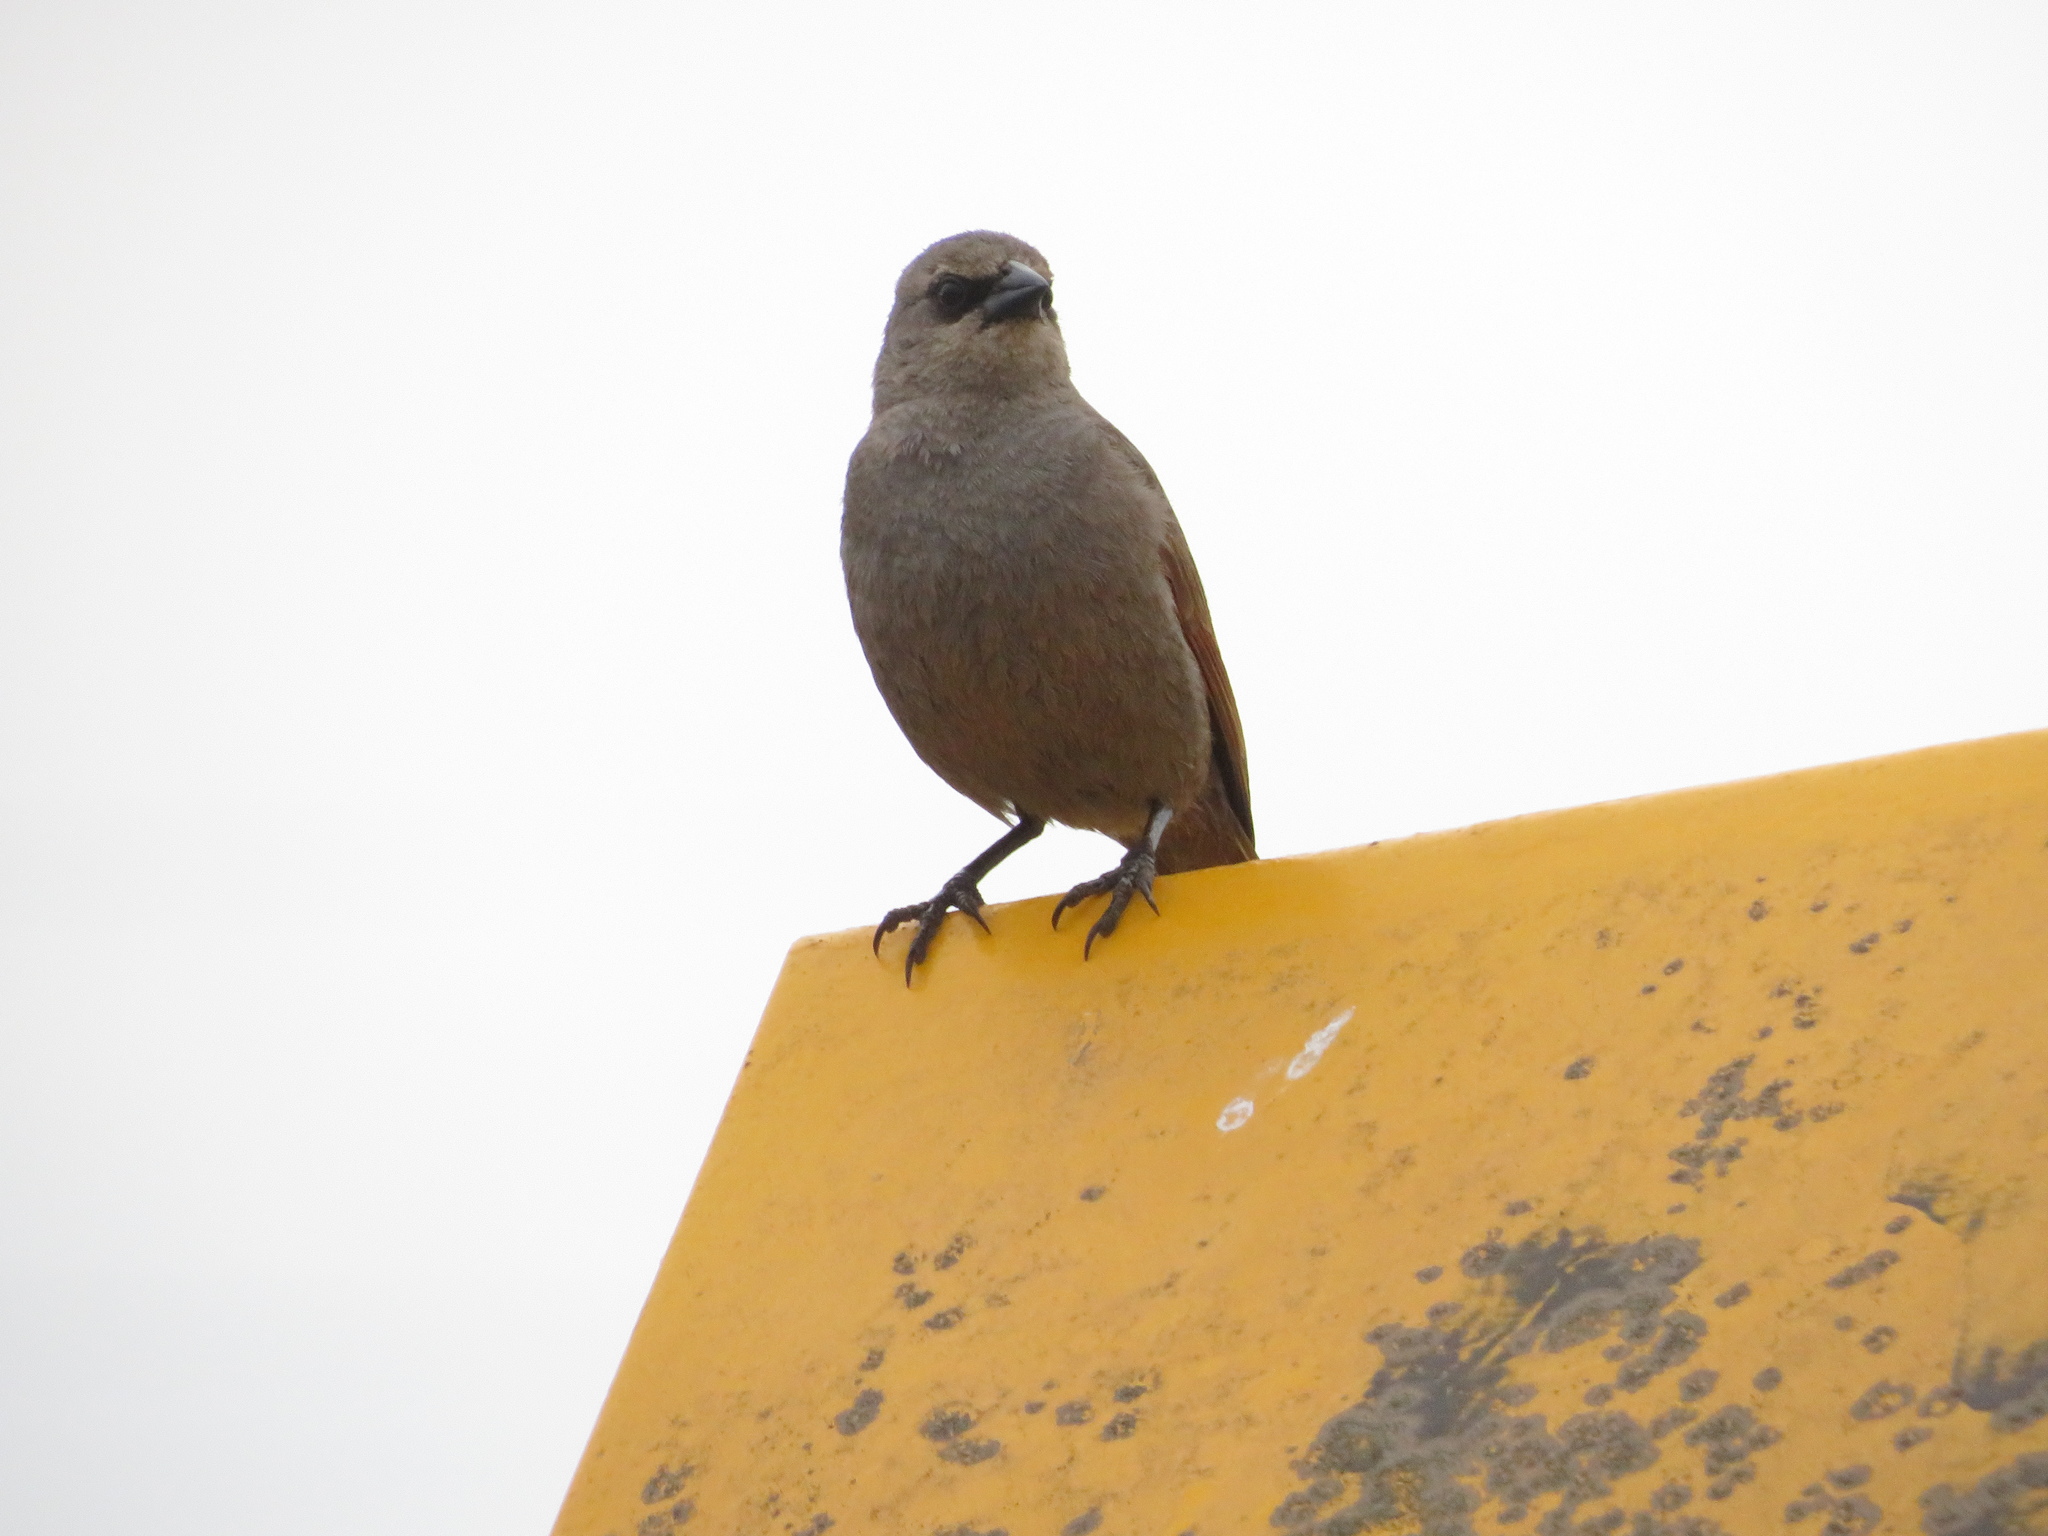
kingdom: Animalia
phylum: Chordata
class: Aves
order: Passeriformes
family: Icteridae
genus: Agelaioides
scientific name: Agelaioides badius
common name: Baywing
